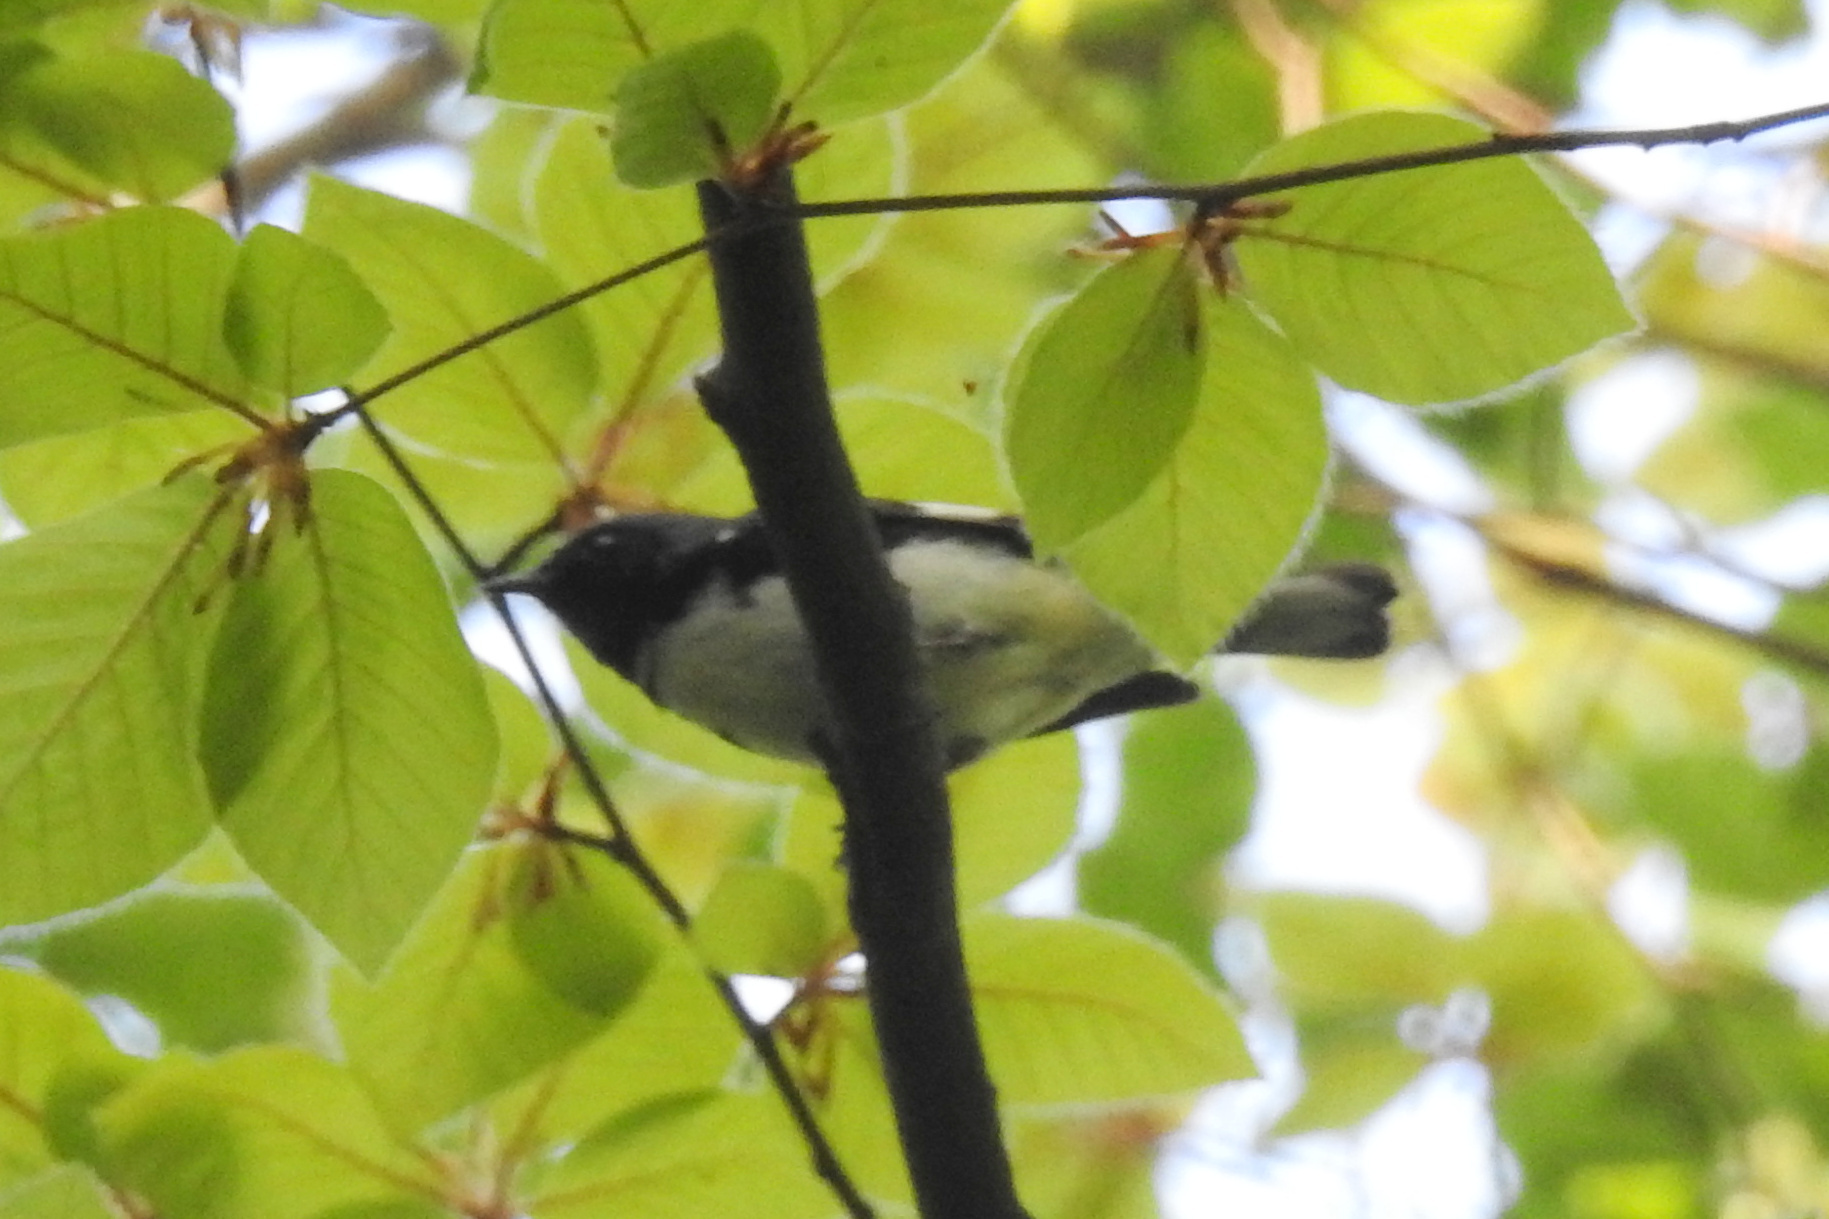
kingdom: Animalia
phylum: Chordata
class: Aves
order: Passeriformes
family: Parulidae
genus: Setophaga
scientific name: Setophaga caerulescens
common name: Black-throated blue warbler
